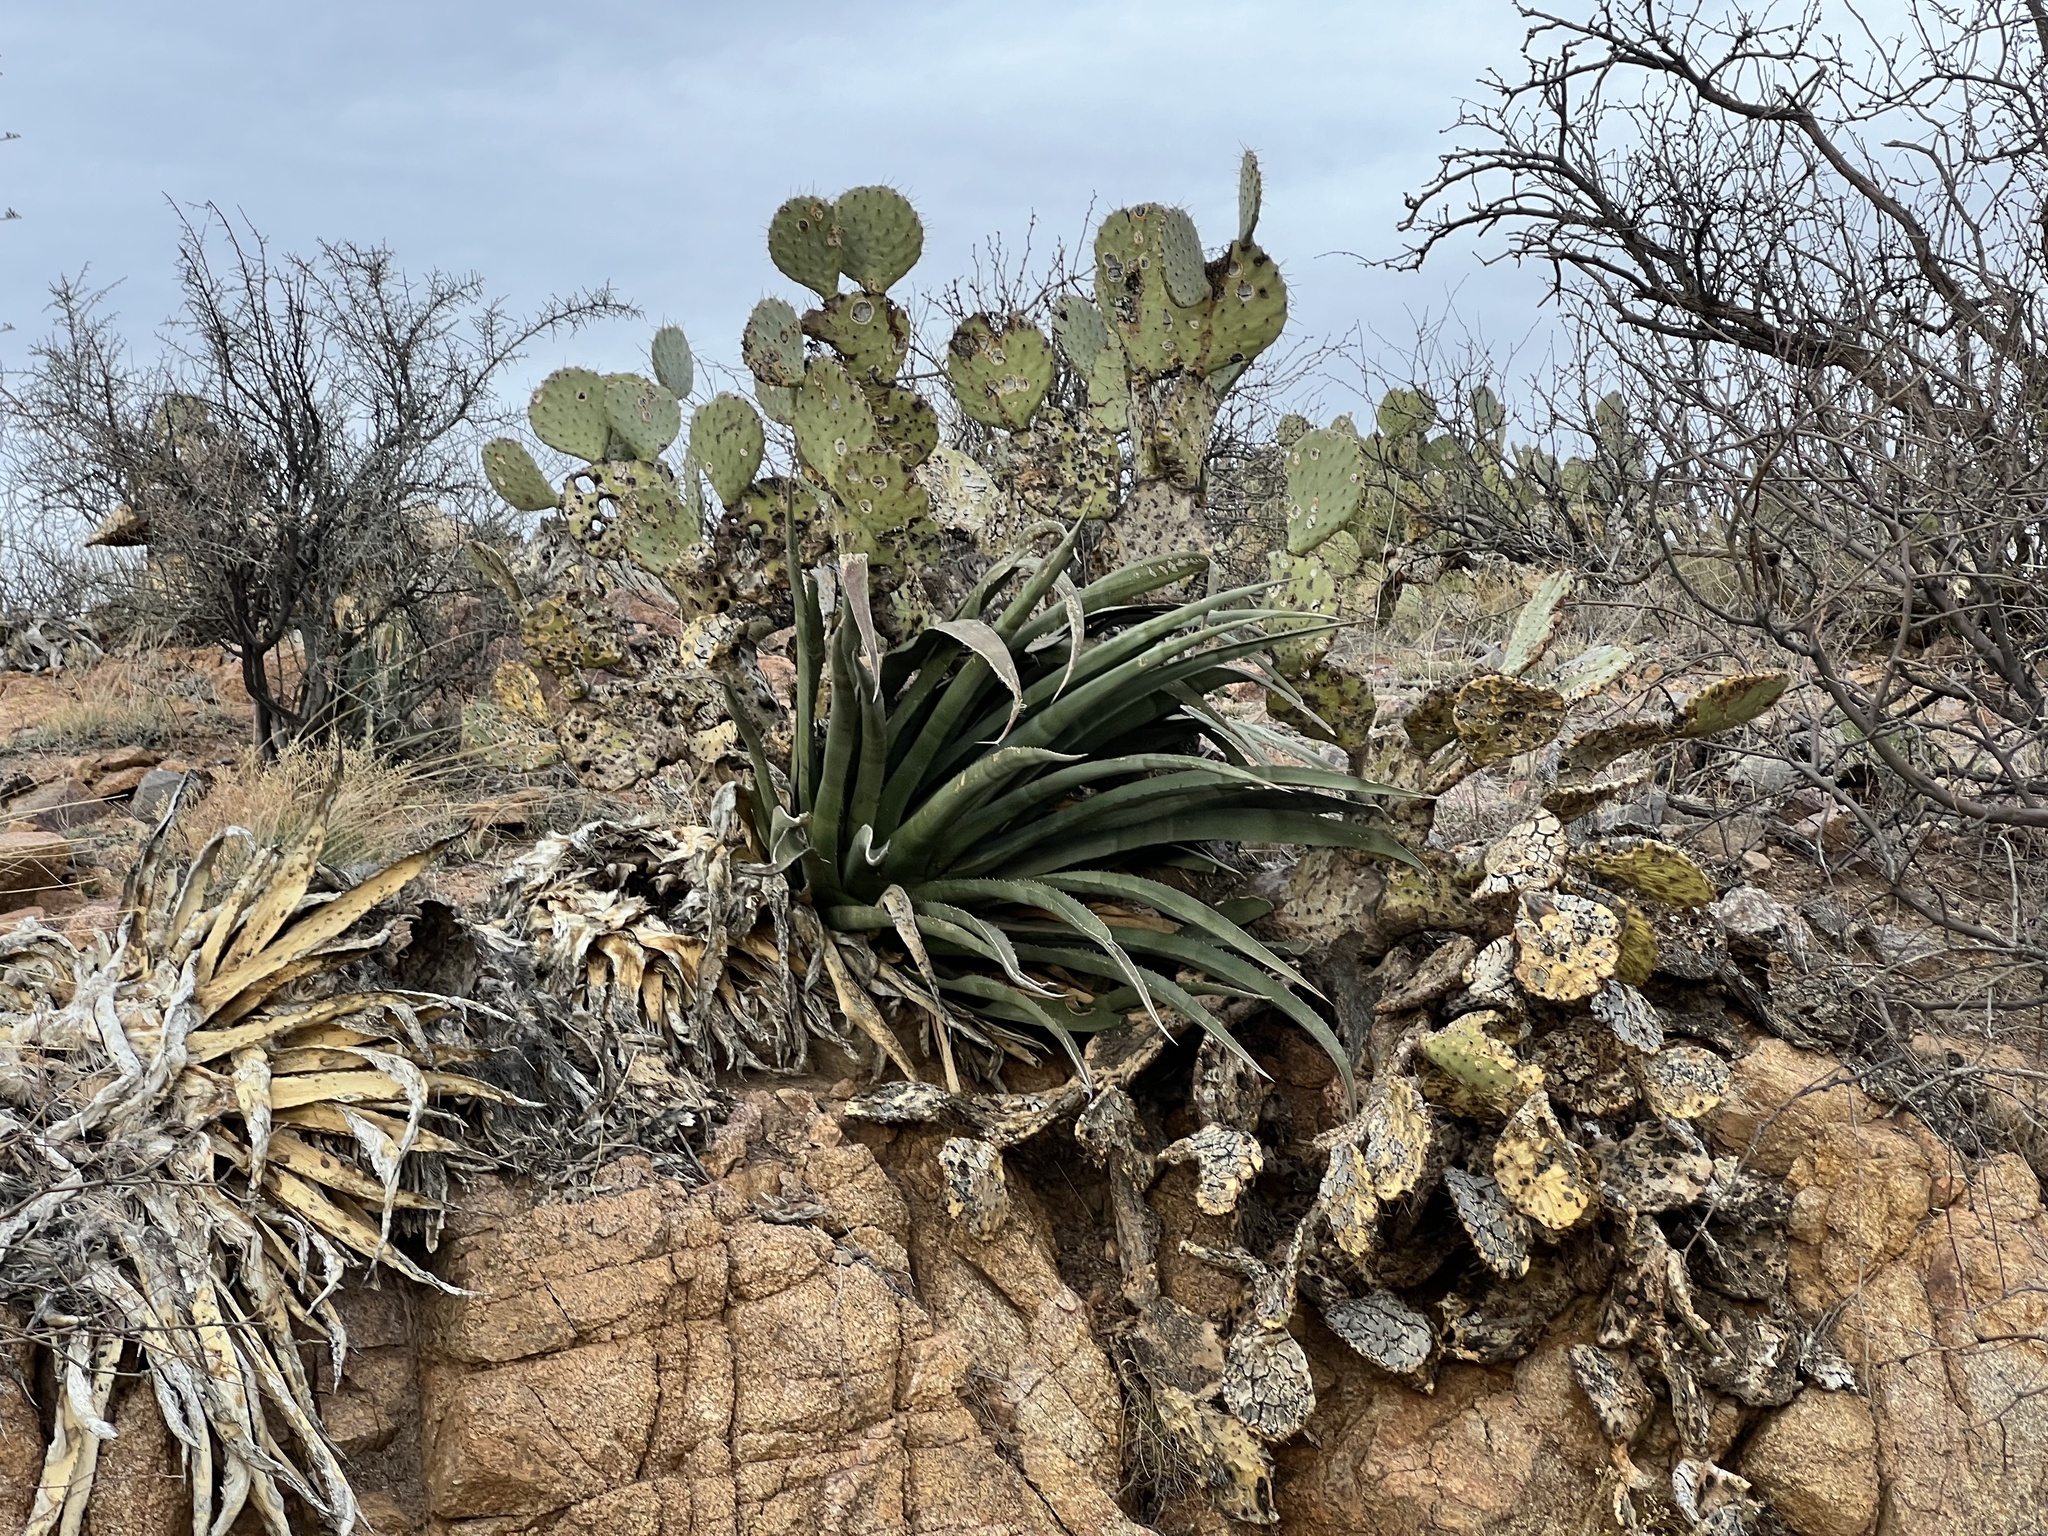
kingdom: Plantae
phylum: Tracheophyta
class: Liliopsida
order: Asparagales
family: Asparagaceae
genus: Agave
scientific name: Agave palmeri
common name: Palmer agave
